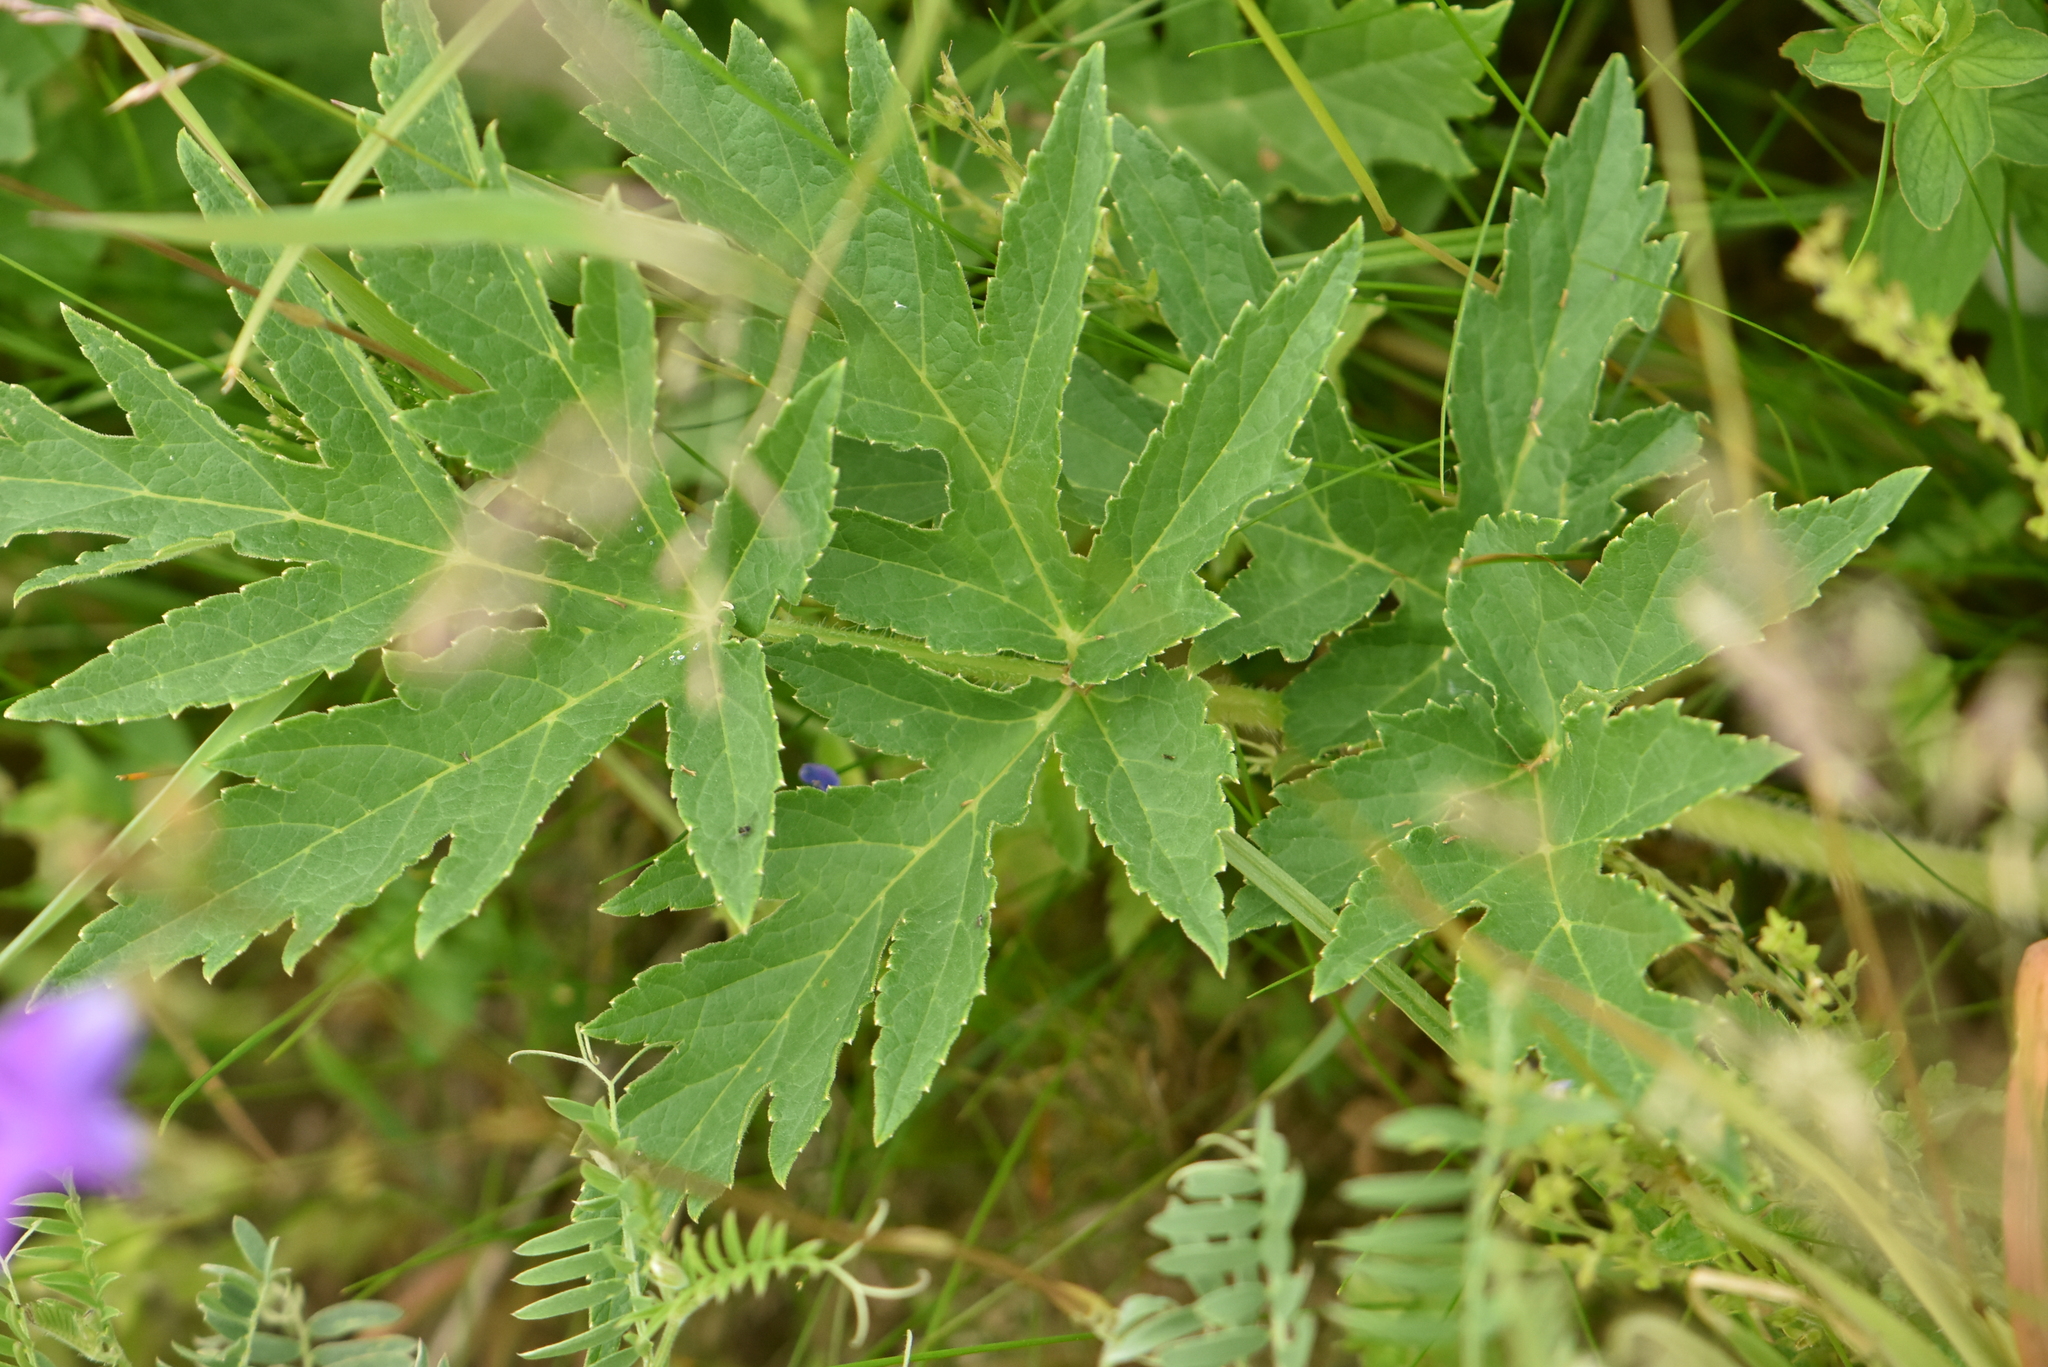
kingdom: Plantae
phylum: Tracheophyta
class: Magnoliopsida
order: Apiales
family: Apiaceae
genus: Heracleum
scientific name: Heracleum sphondylium
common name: Hogweed
